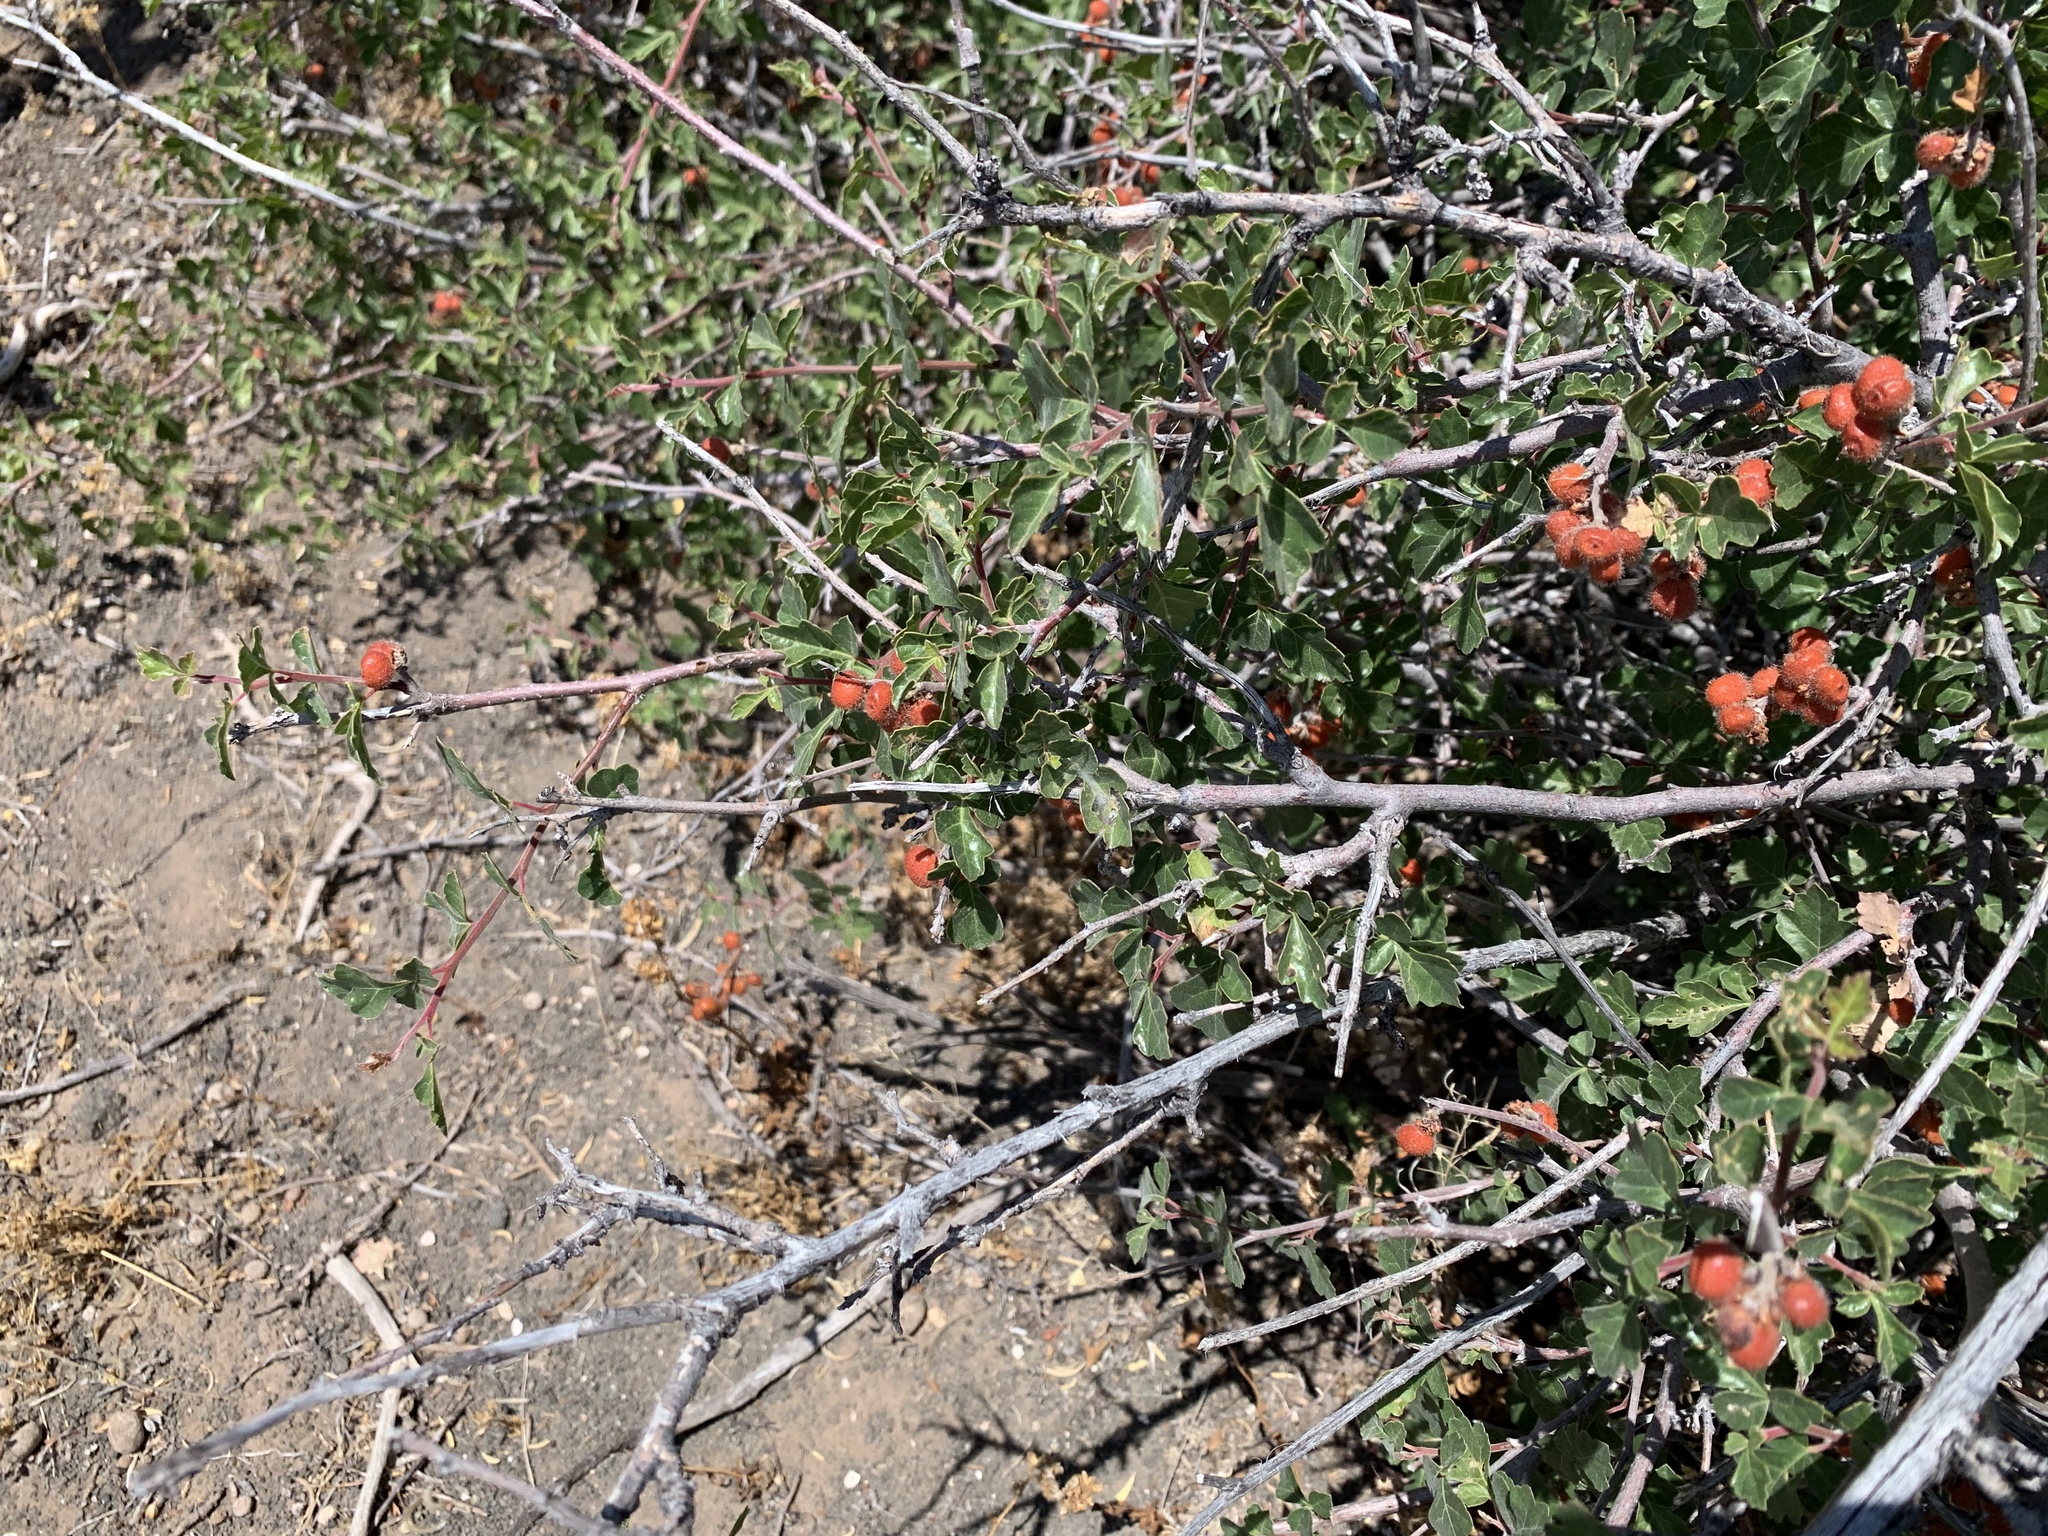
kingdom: Plantae
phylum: Tracheophyta
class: Magnoliopsida
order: Sapindales
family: Anacardiaceae
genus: Rhus
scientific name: Rhus aromatica
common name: Aromatic sumac
